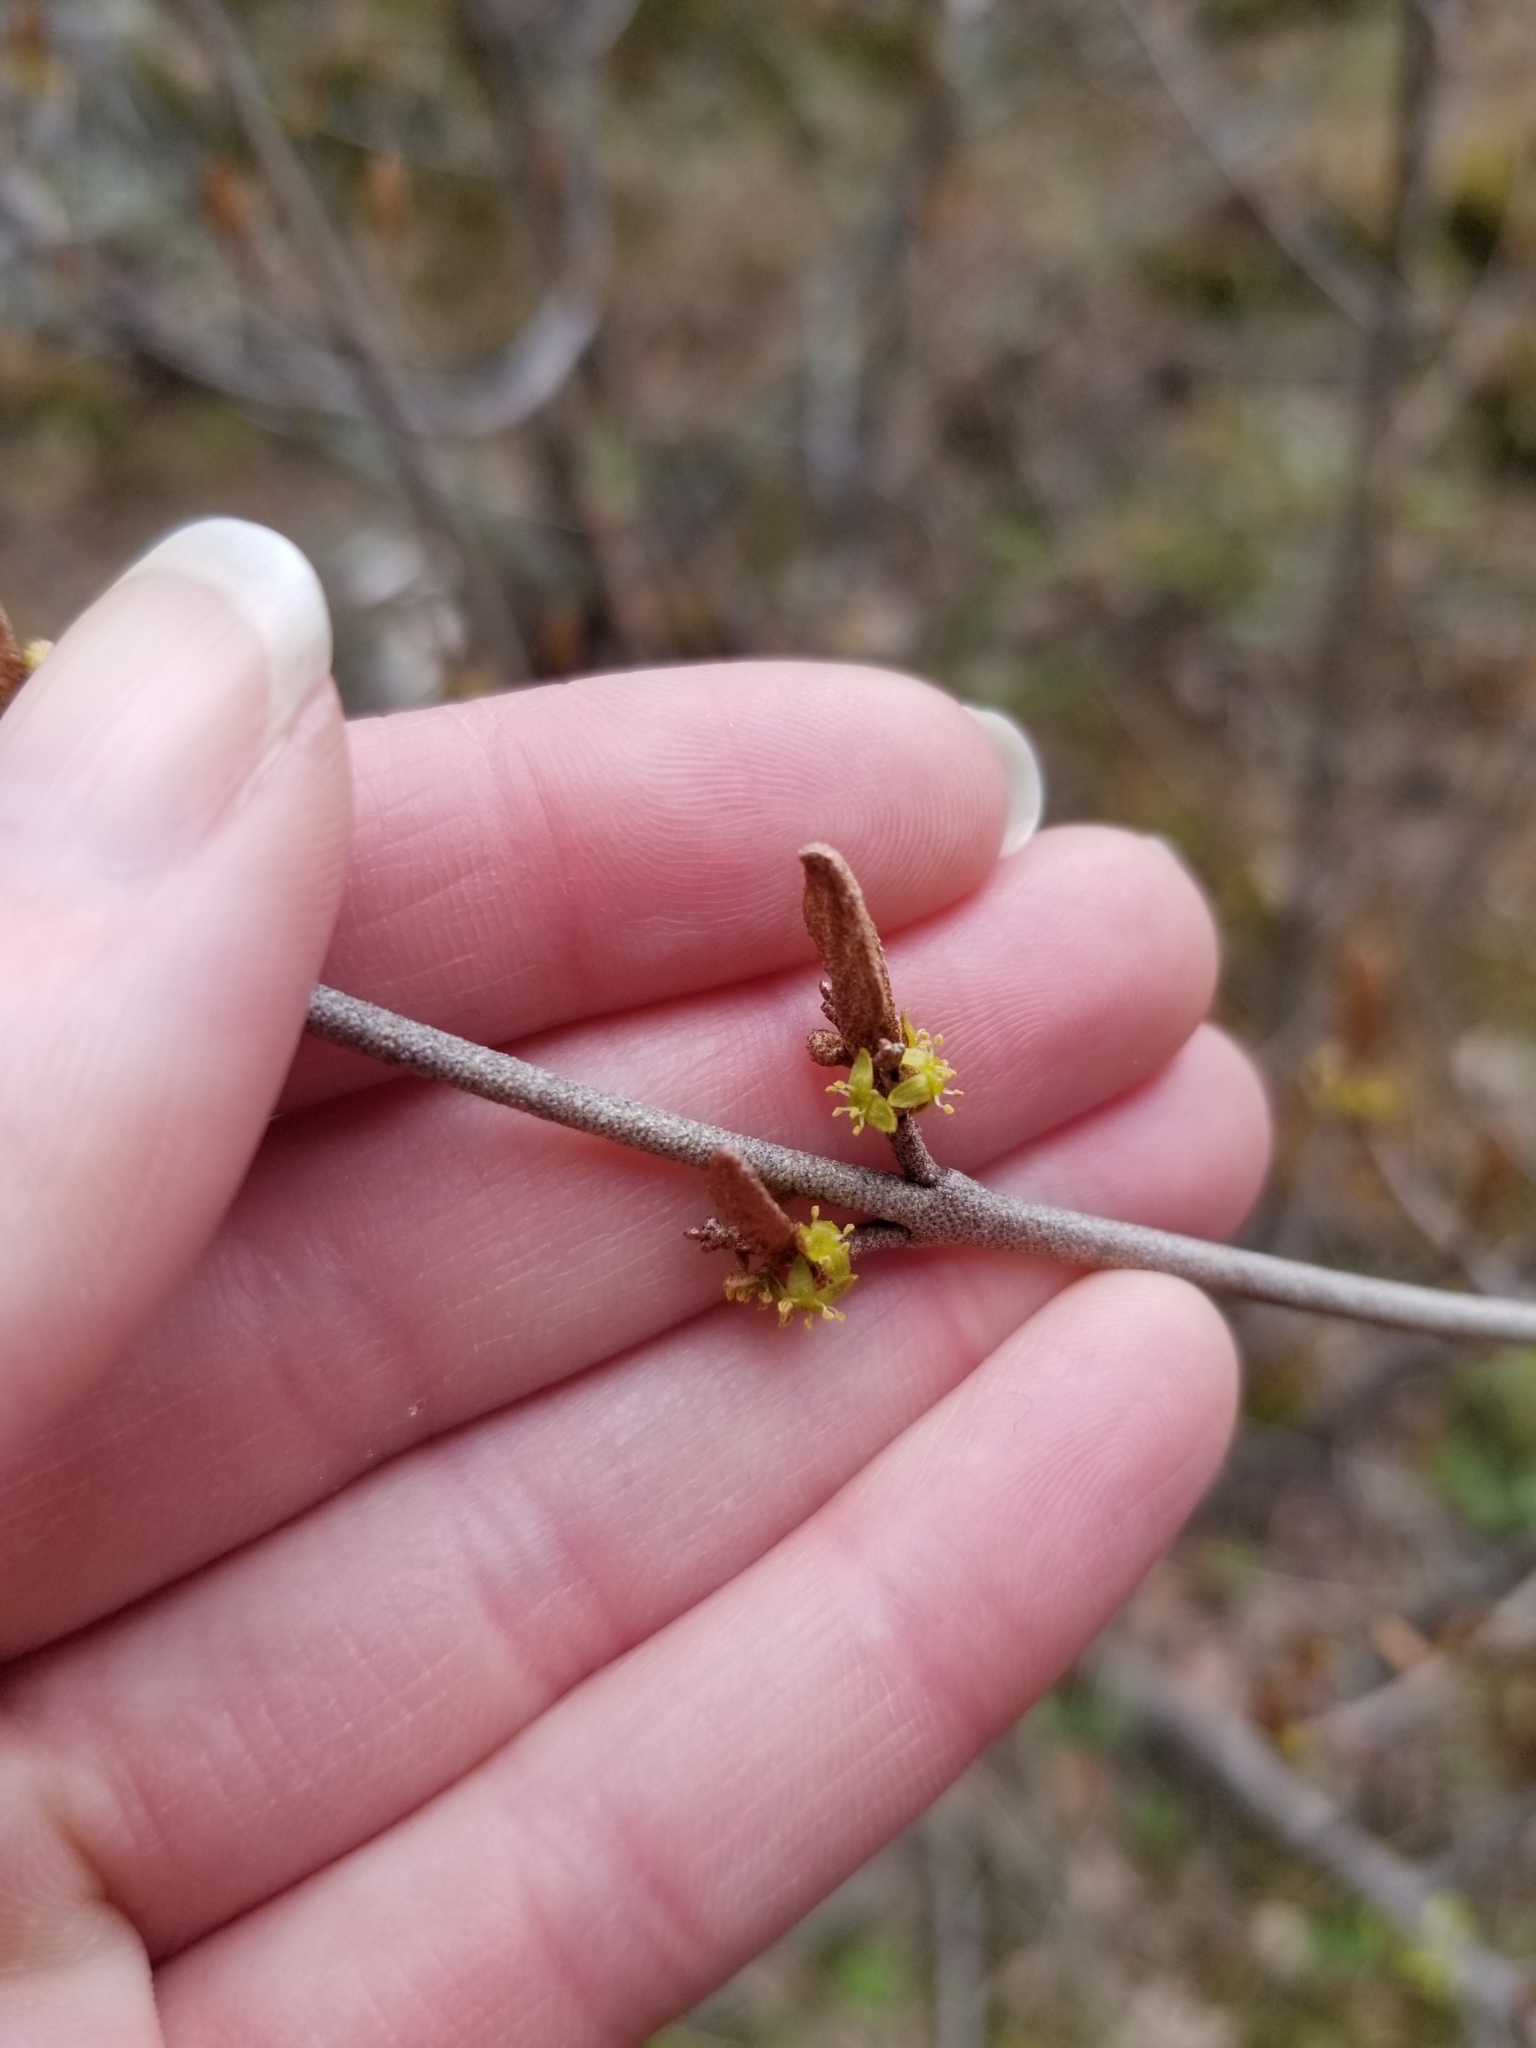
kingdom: Plantae
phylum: Tracheophyta
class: Magnoliopsida
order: Rosales
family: Elaeagnaceae
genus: Shepherdia
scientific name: Shepherdia canadensis
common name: Soapberry
